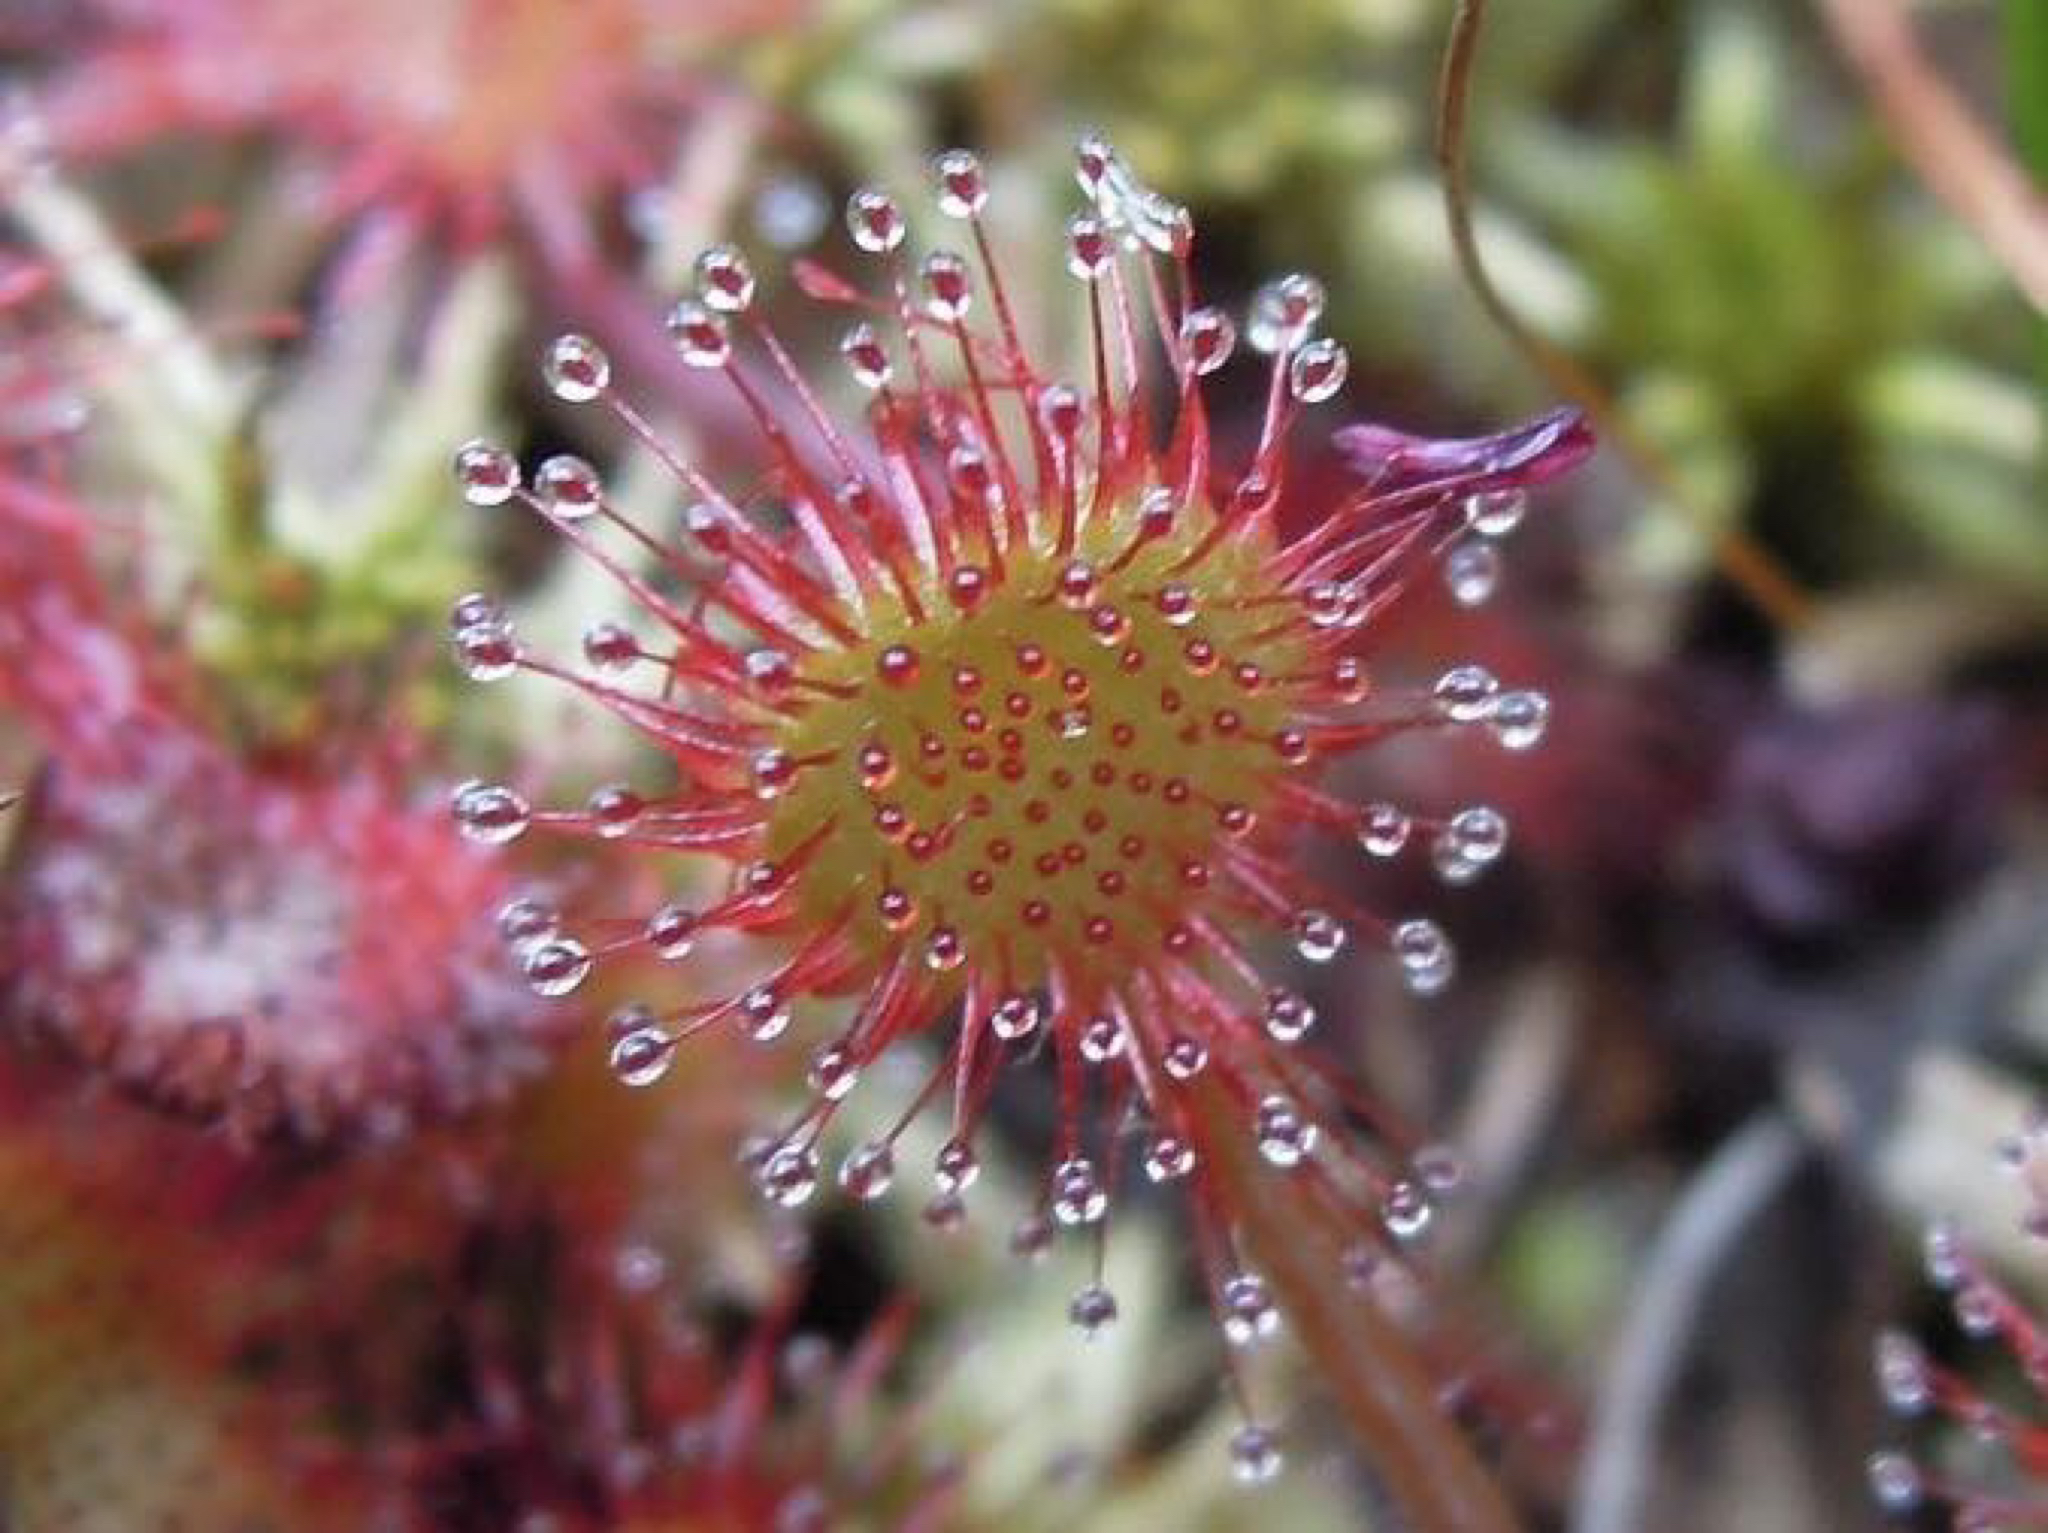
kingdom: Plantae
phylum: Tracheophyta
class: Magnoliopsida
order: Caryophyllales
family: Droseraceae
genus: Drosera
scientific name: Drosera rotundifolia
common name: Round-leaved sundew
